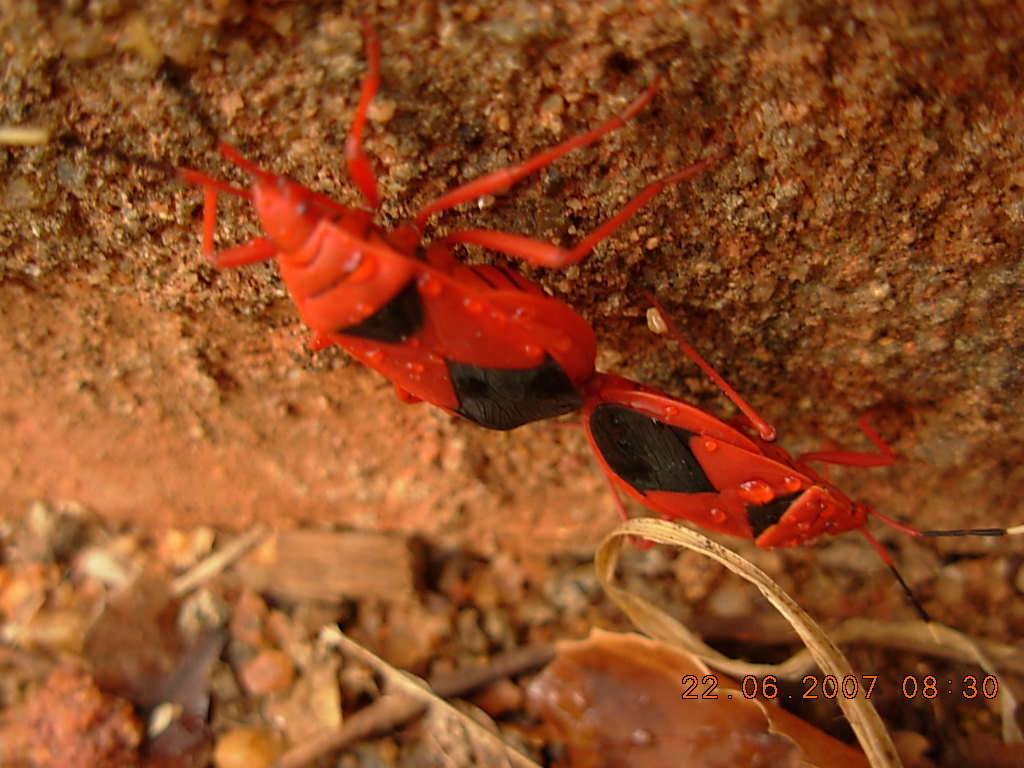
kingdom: Animalia
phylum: Arthropoda
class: Insecta
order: Hemiptera
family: Pyrrhocoridae
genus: Probergrothius
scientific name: Probergrothius
